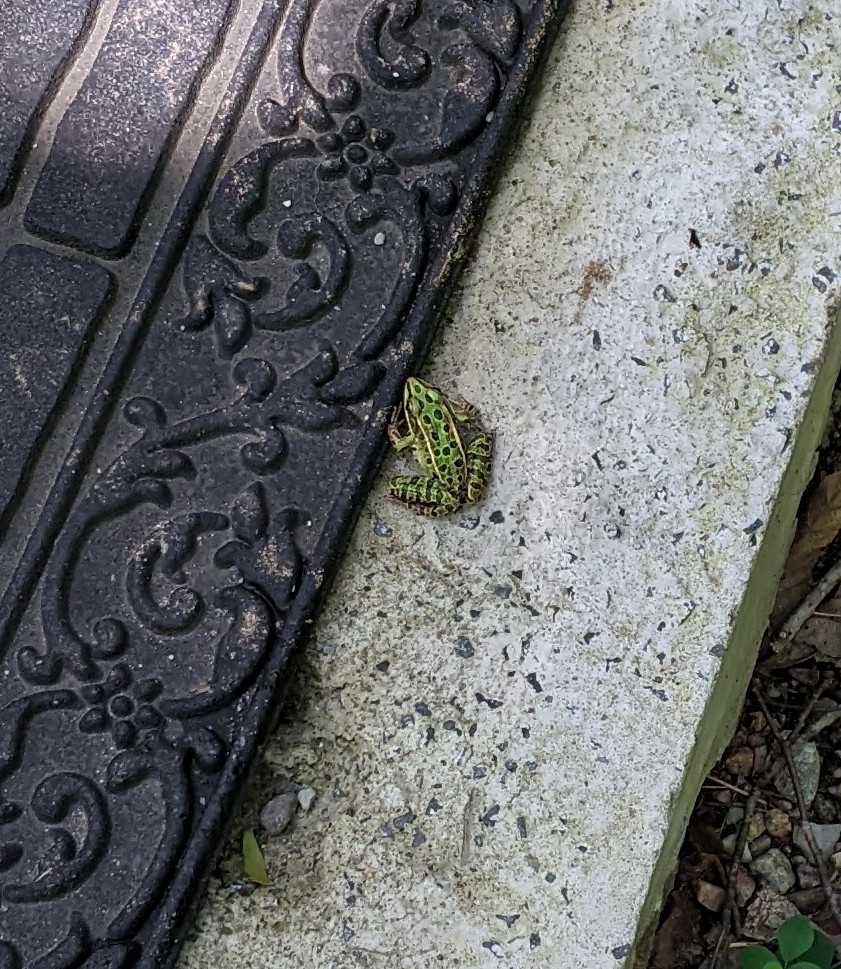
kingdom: Animalia
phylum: Chordata
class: Amphibia
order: Anura
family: Ranidae
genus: Lithobates
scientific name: Lithobates pipiens
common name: Northern leopard frog
